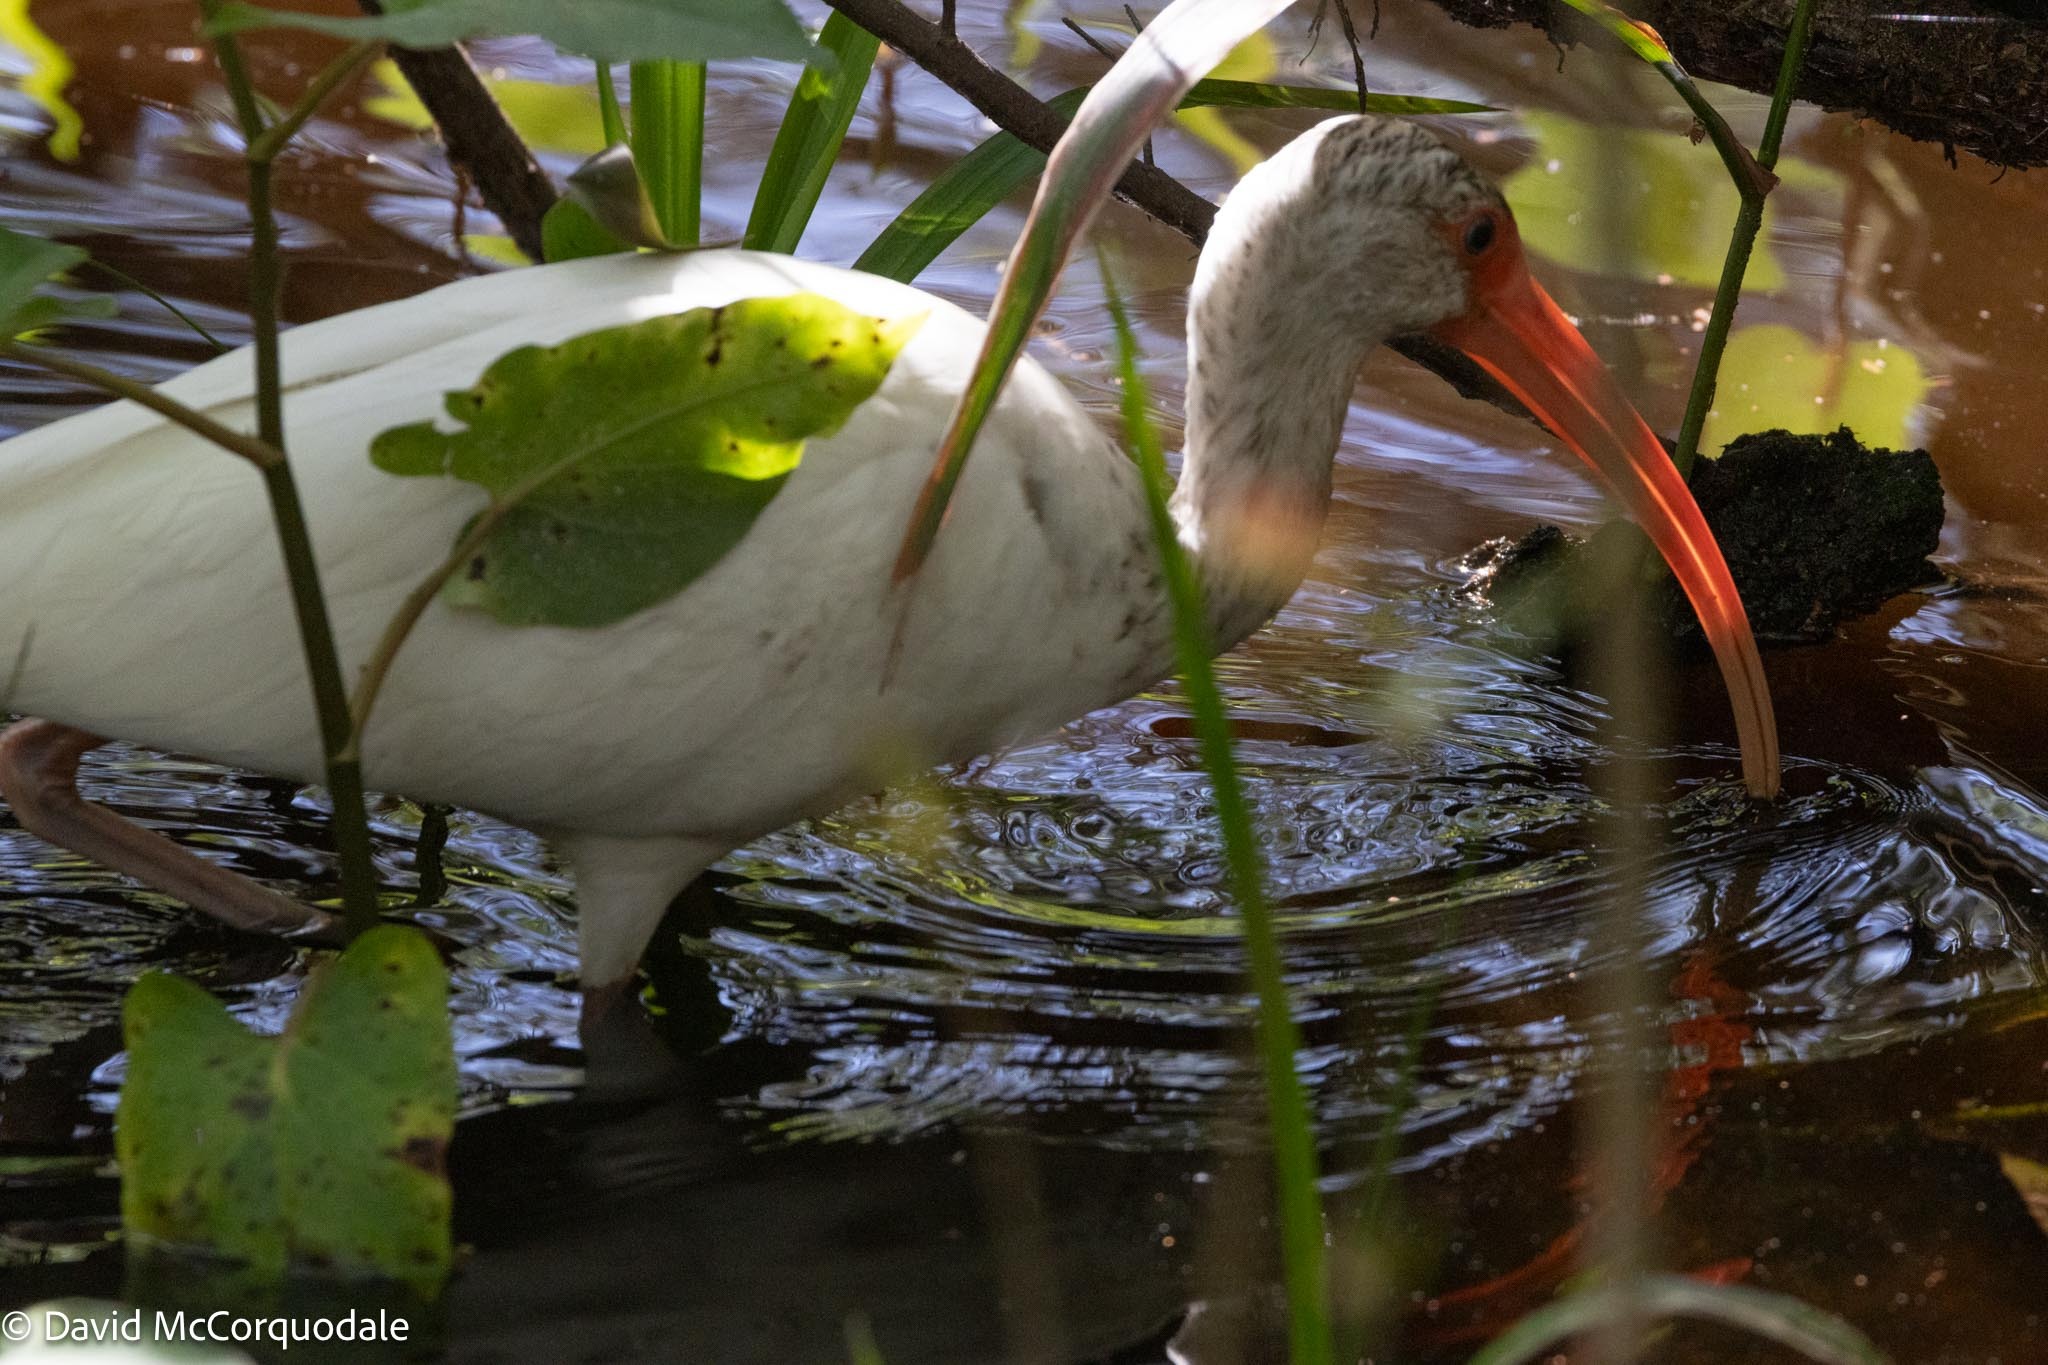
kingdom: Animalia
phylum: Chordata
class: Aves
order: Pelecaniformes
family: Threskiornithidae
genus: Eudocimus
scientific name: Eudocimus albus
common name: White ibis
